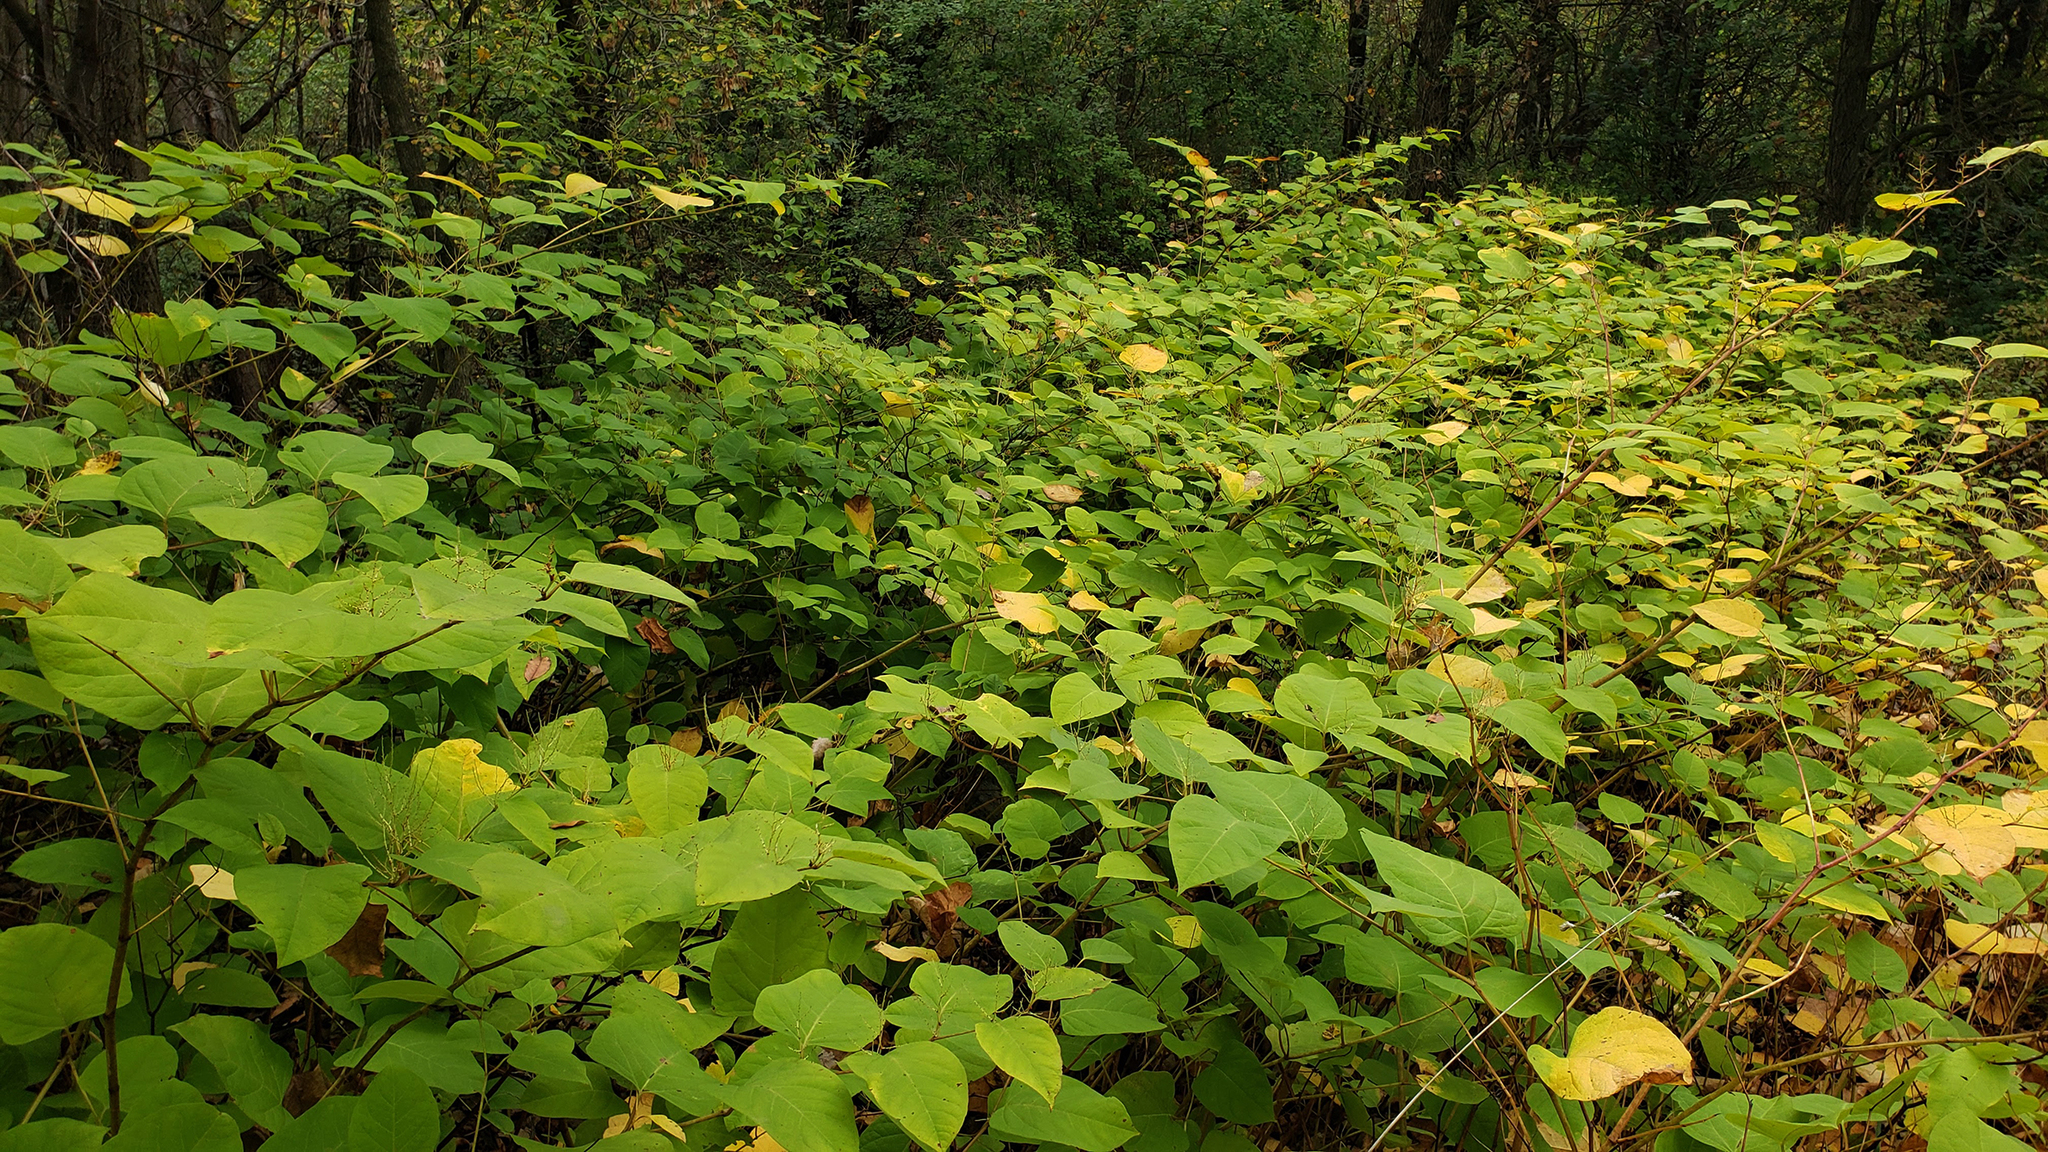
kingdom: Plantae
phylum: Tracheophyta
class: Magnoliopsida
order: Caryophyllales
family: Polygonaceae
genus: Reynoutria
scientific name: Reynoutria japonica
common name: Japanese knotweed
